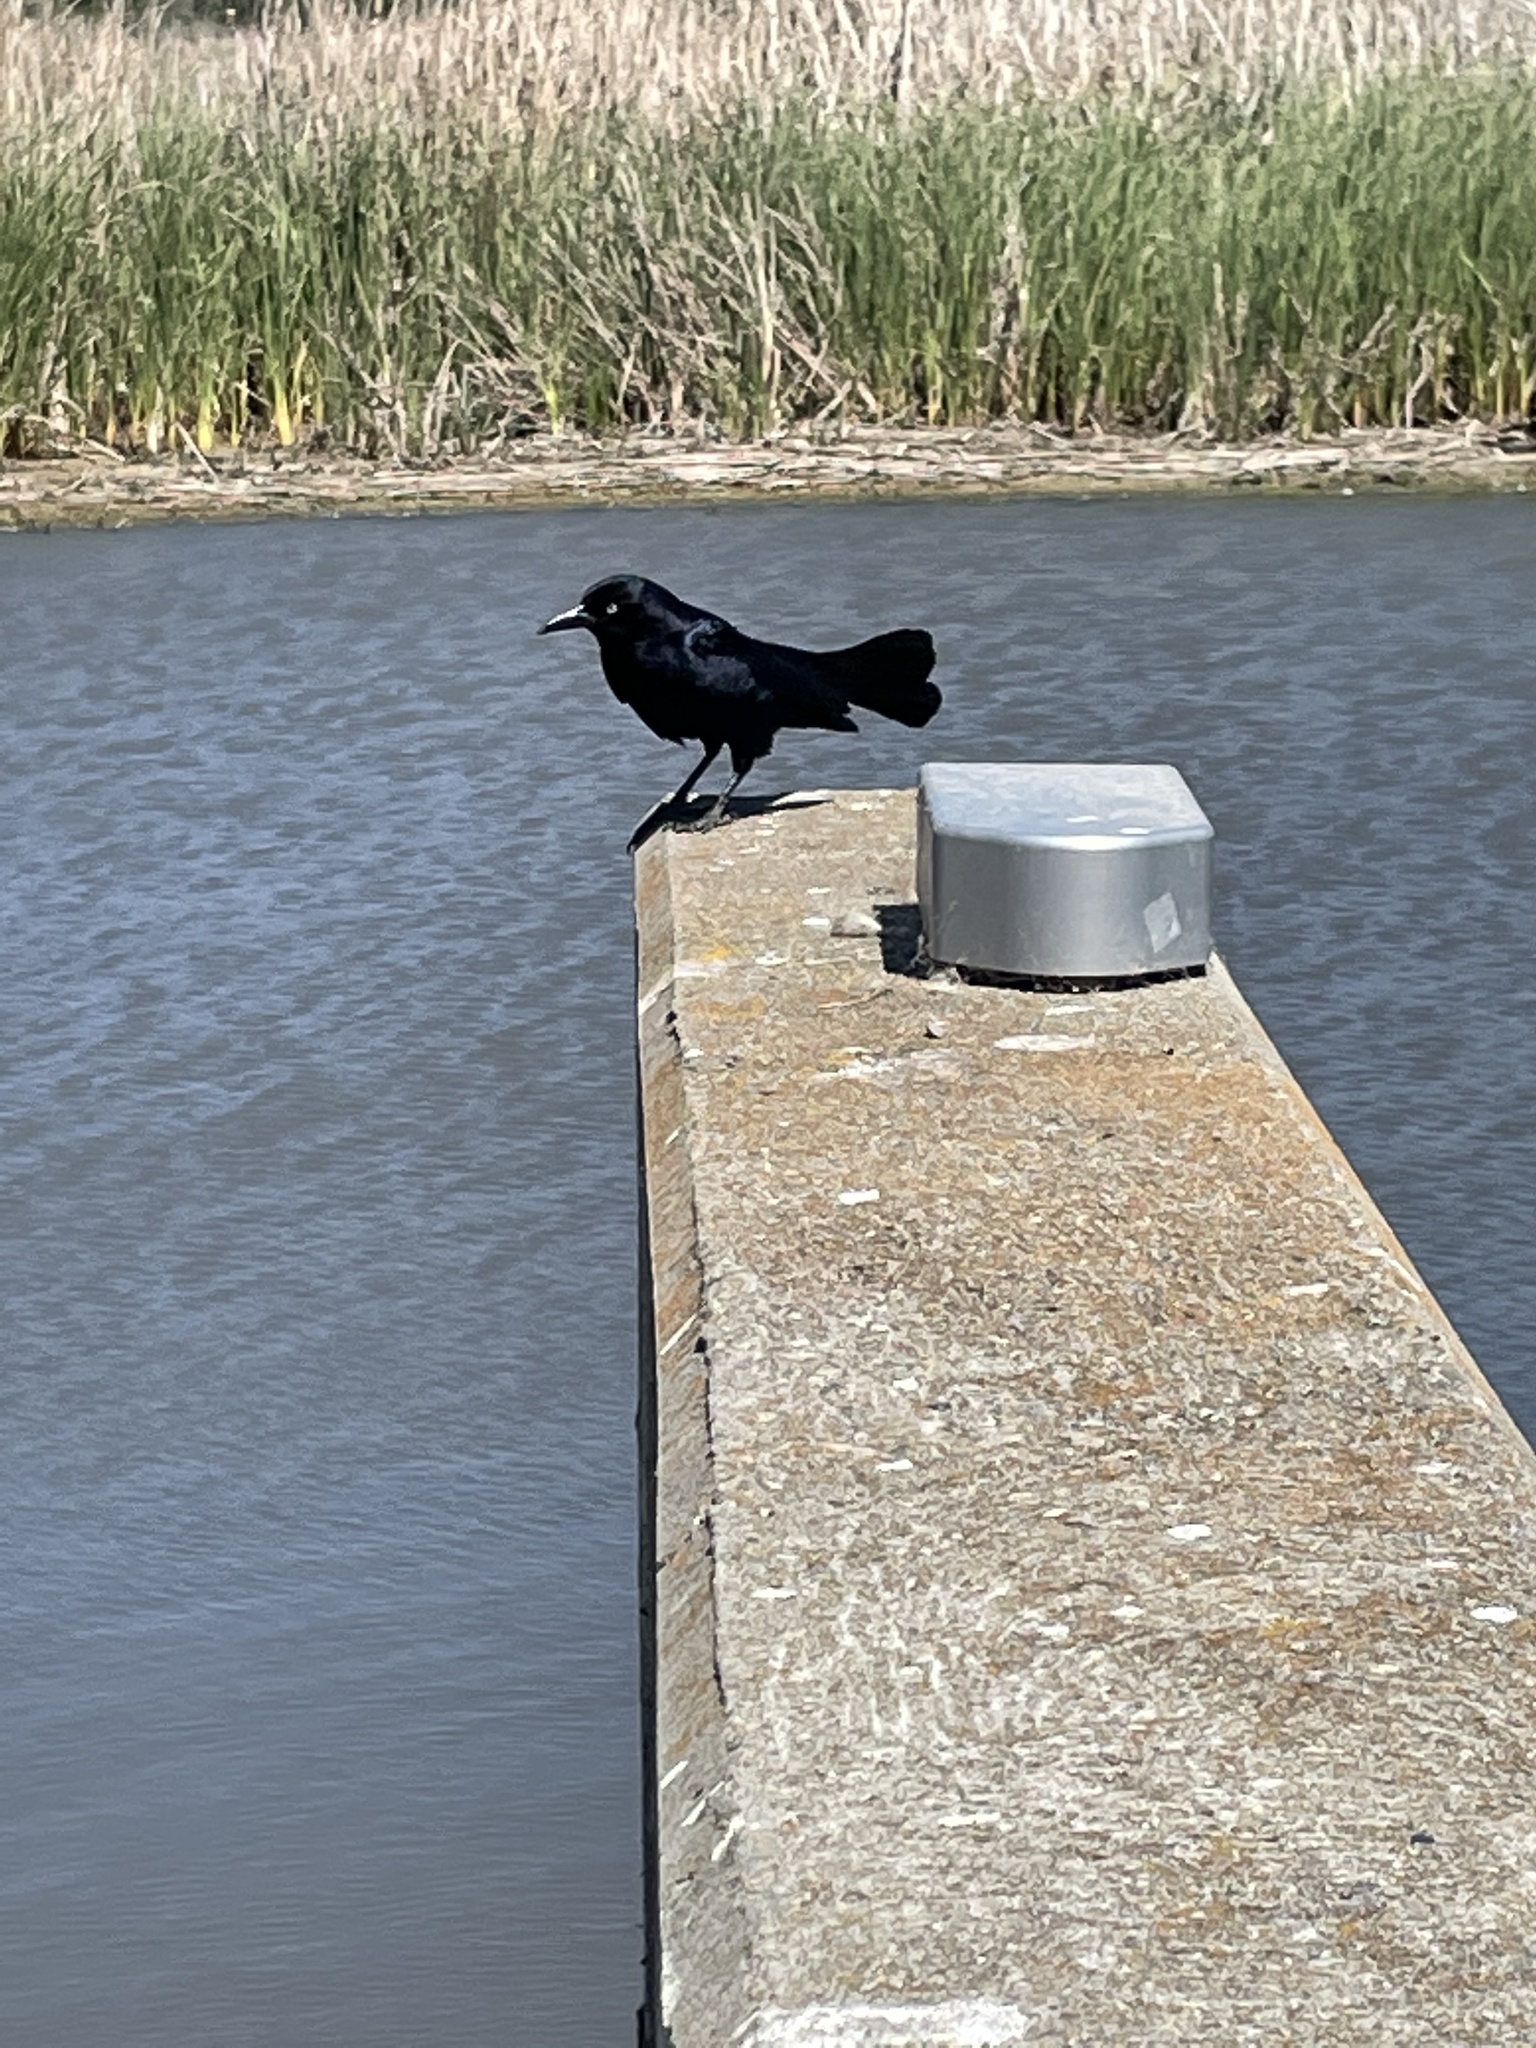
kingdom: Animalia
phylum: Chordata
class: Aves
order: Passeriformes
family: Icteridae
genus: Quiscalus
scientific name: Quiscalus mexicanus
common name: Great-tailed grackle
